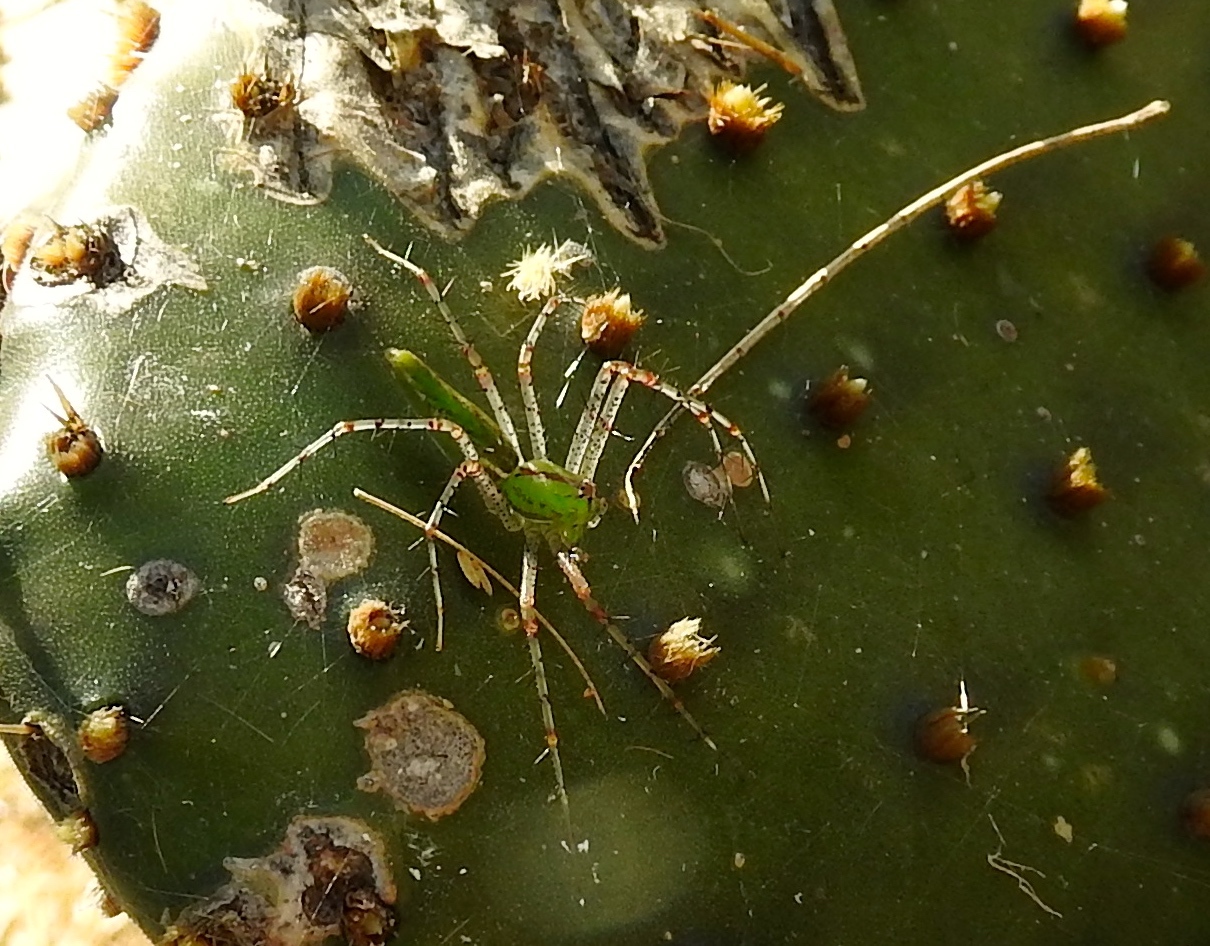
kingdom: Animalia
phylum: Arthropoda
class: Arachnida
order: Araneae
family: Oxyopidae
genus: Peucetia
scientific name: Peucetia viridans
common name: Lynx spiders
